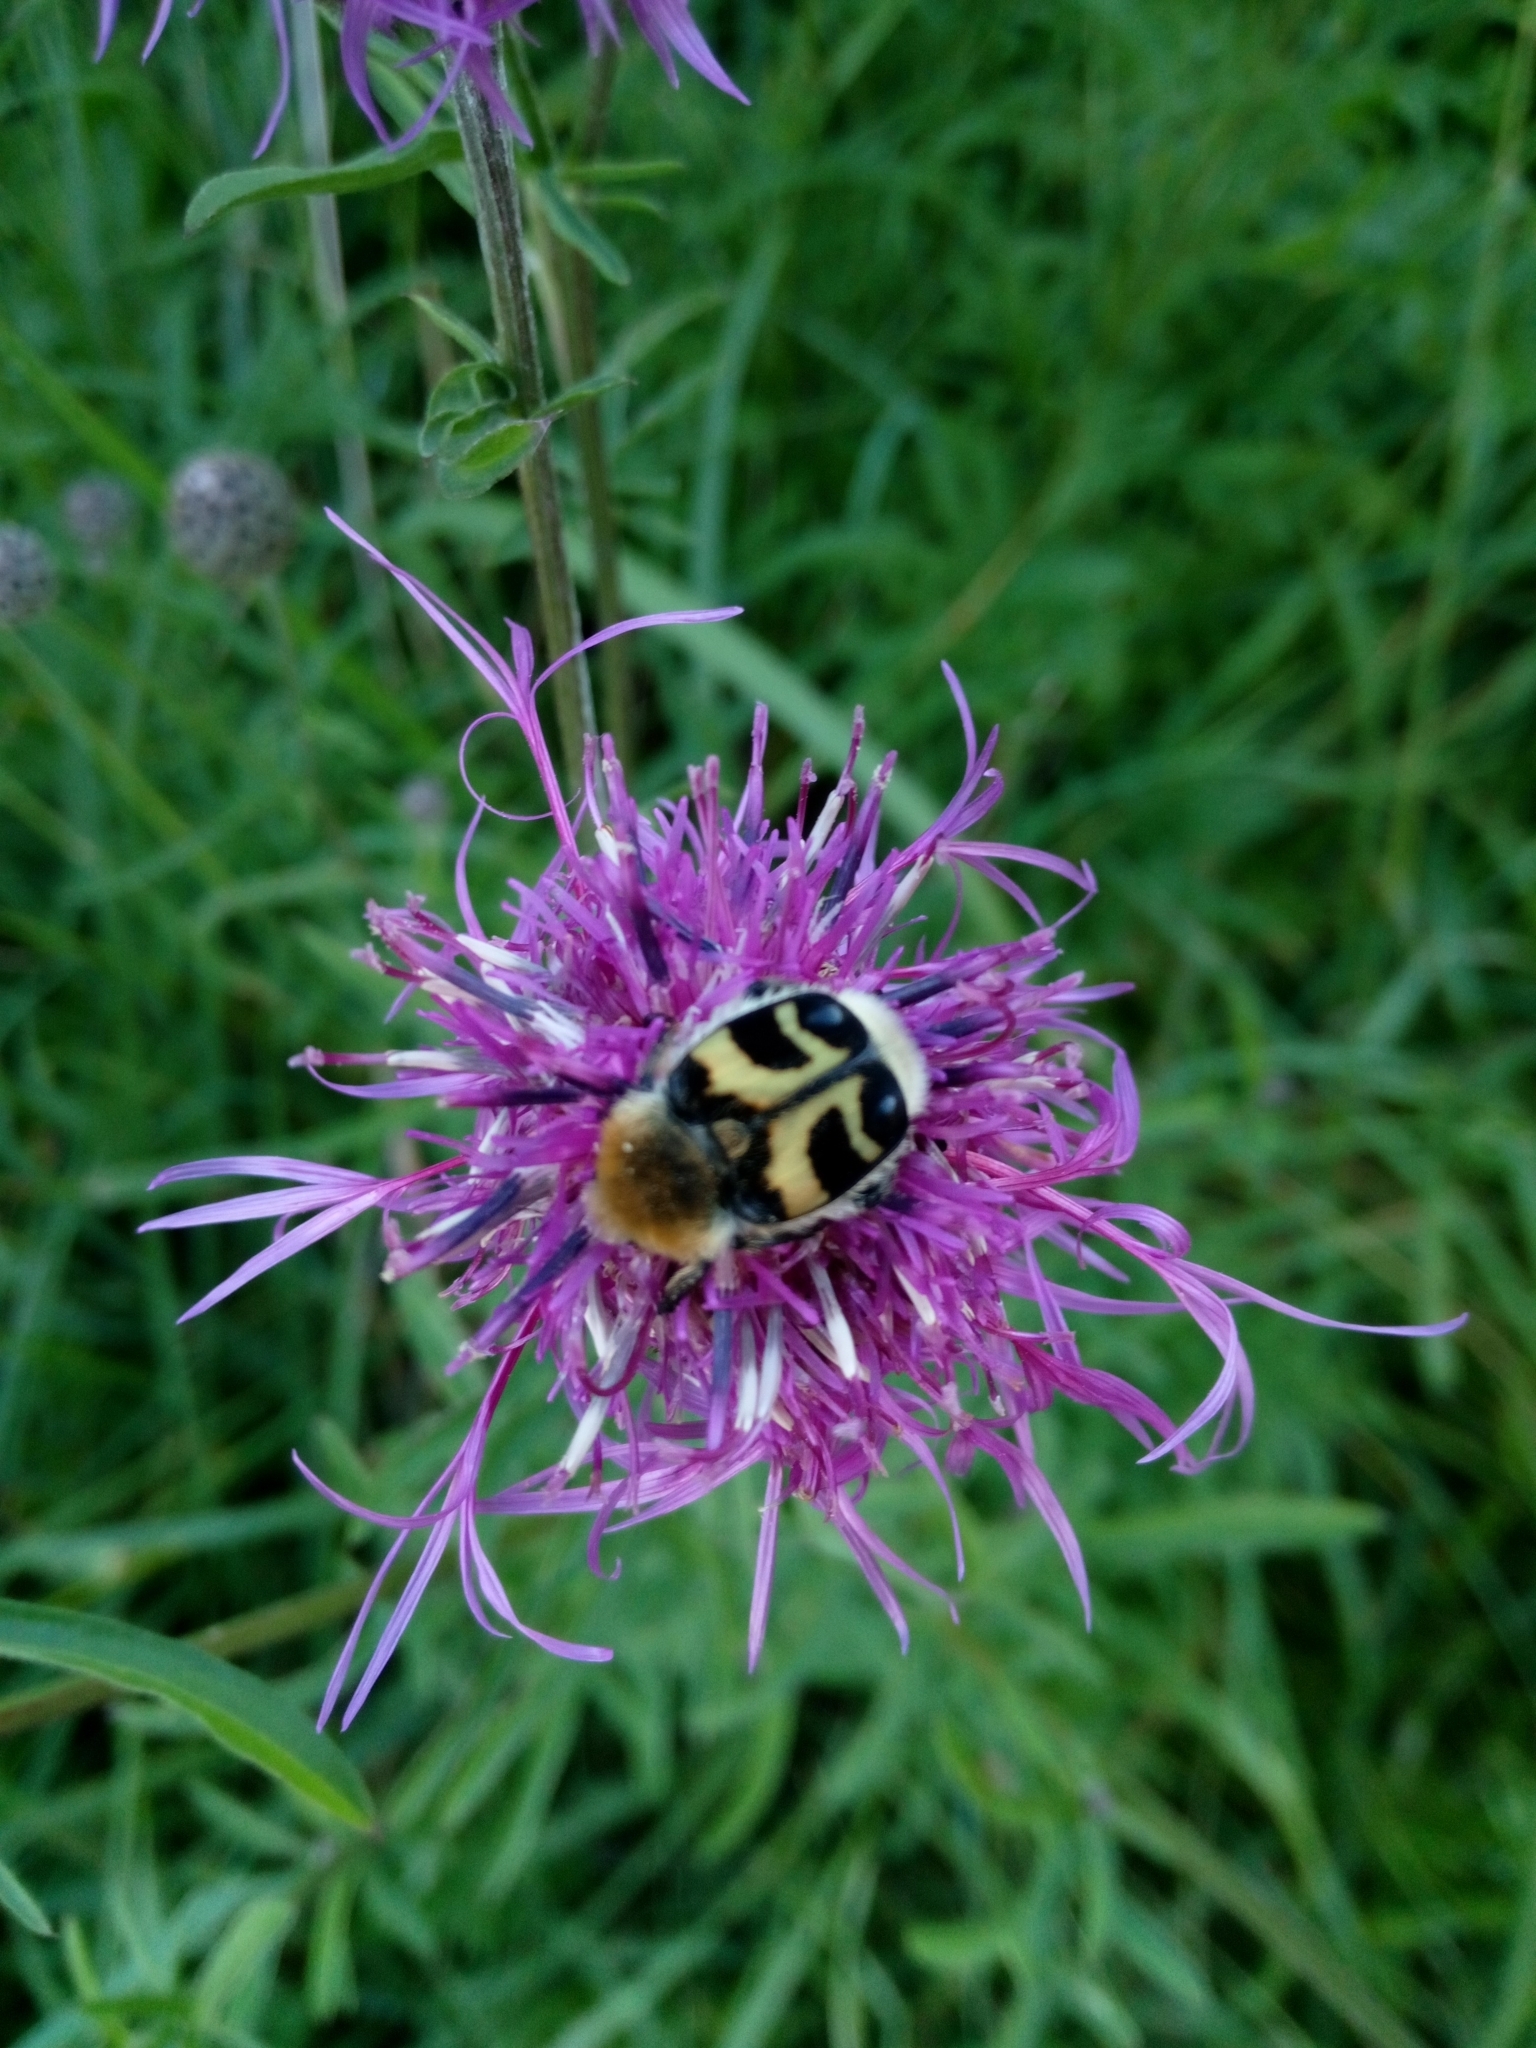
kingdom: Animalia
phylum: Arthropoda
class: Insecta
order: Coleoptera
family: Scarabaeidae
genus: Trichius
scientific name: Trichius fasciatus
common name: Bee beetle
